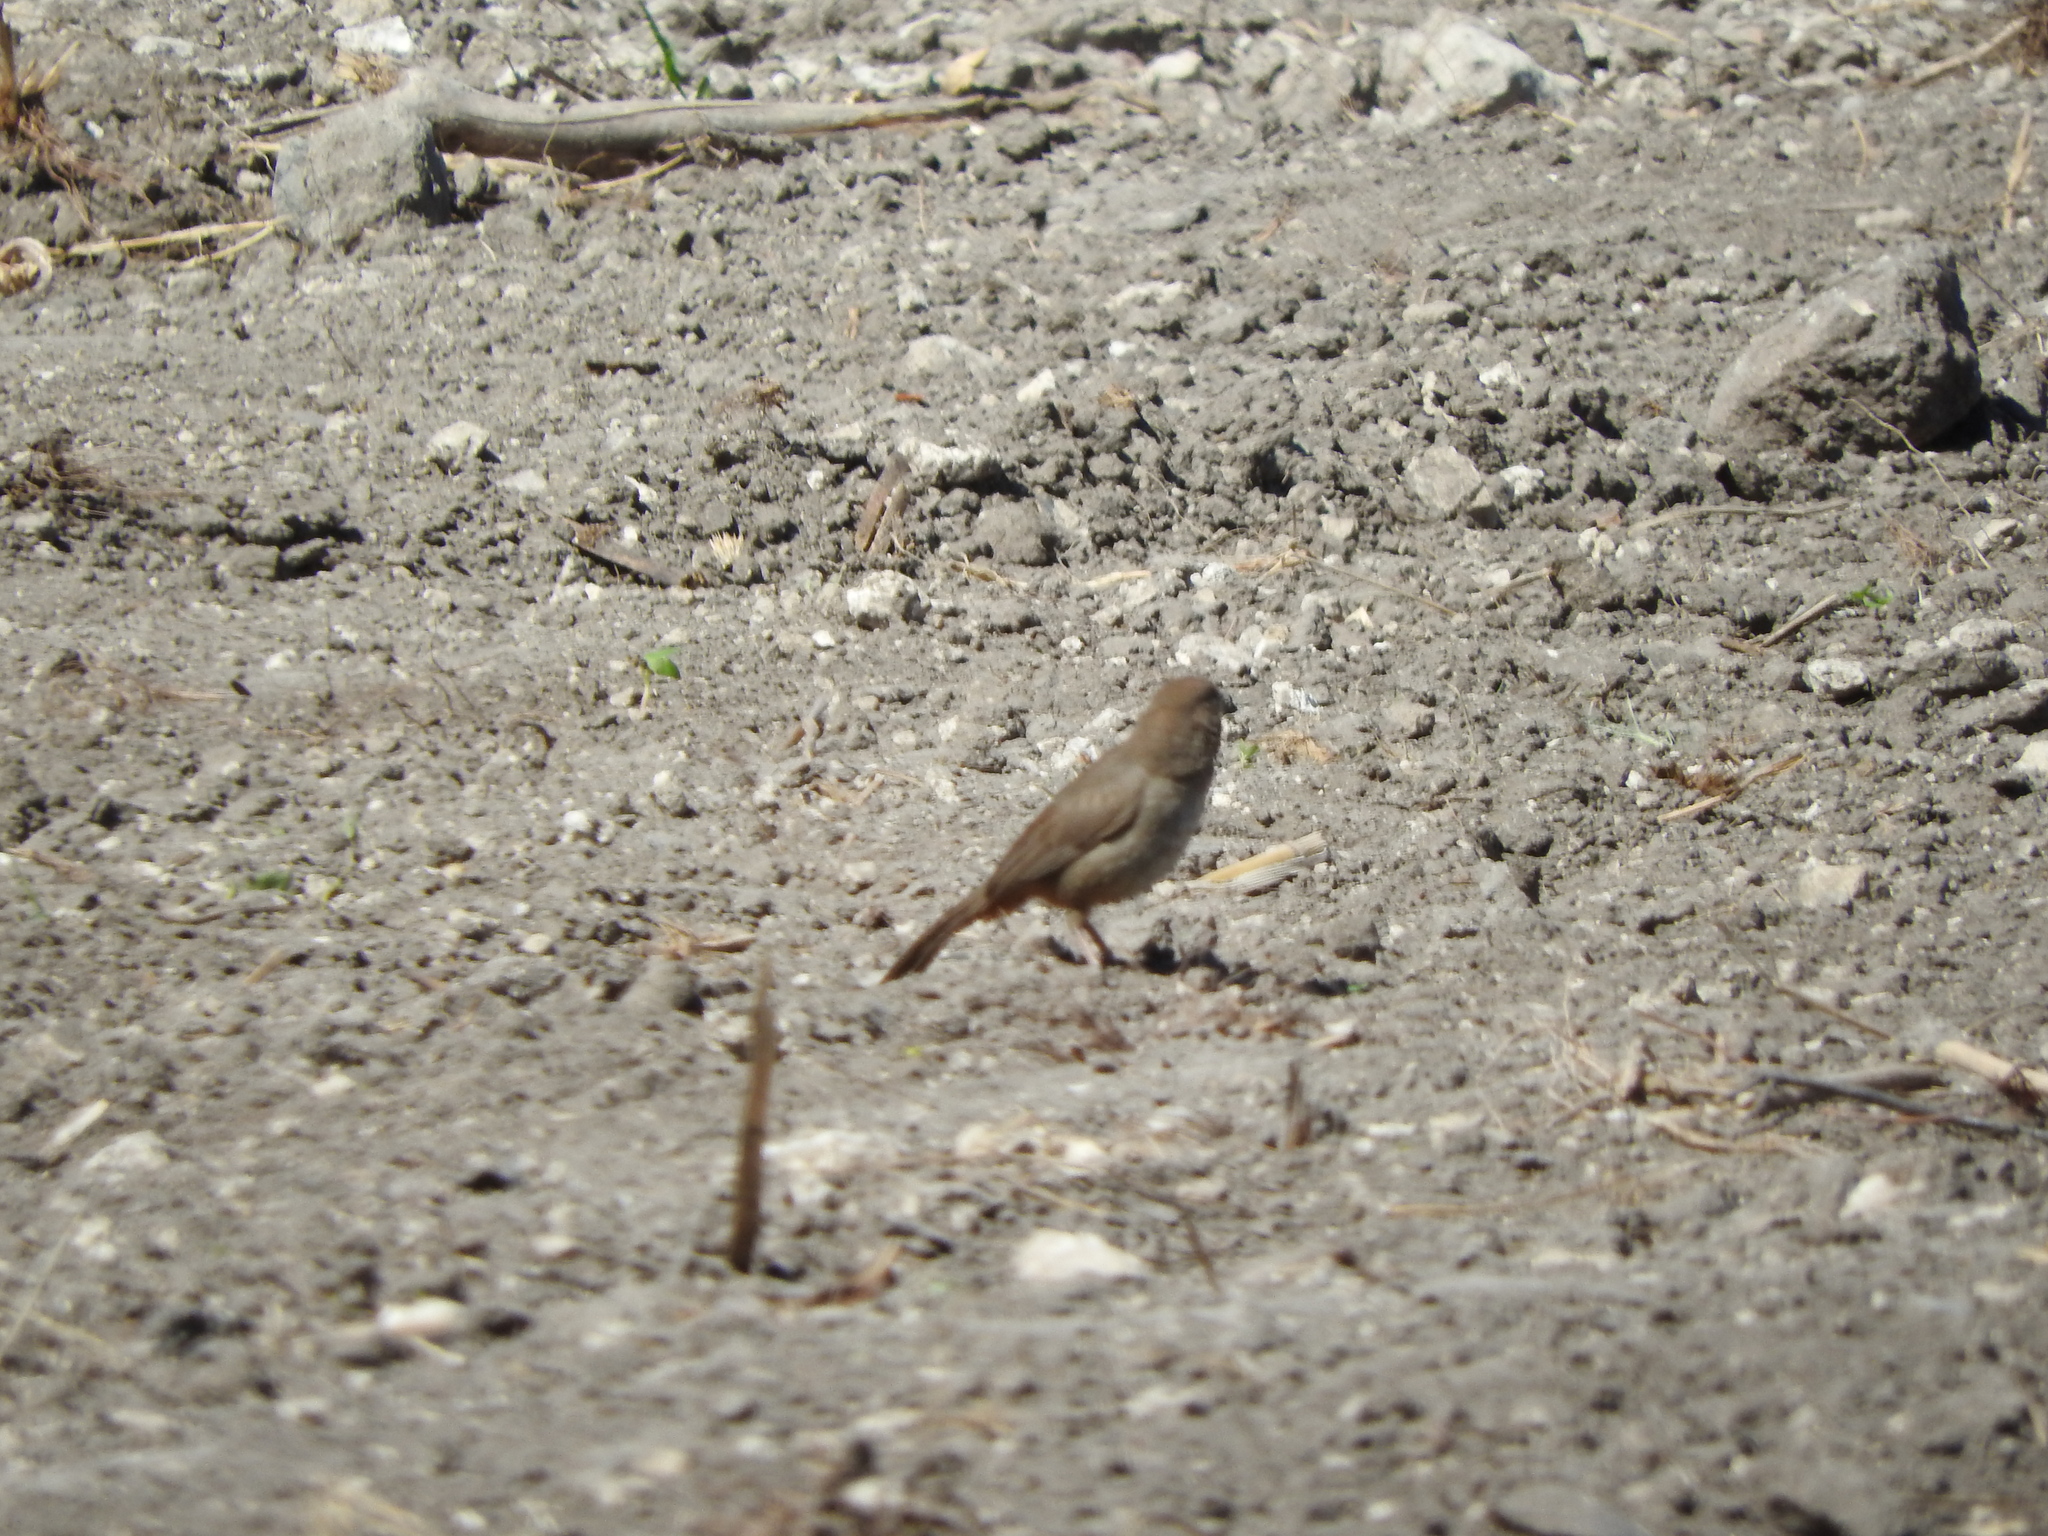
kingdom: Animalia
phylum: Chordata
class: Aves
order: Passeriformes
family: Passerellidae
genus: Melozone
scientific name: Melozone fusca
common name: Canyon towhee
